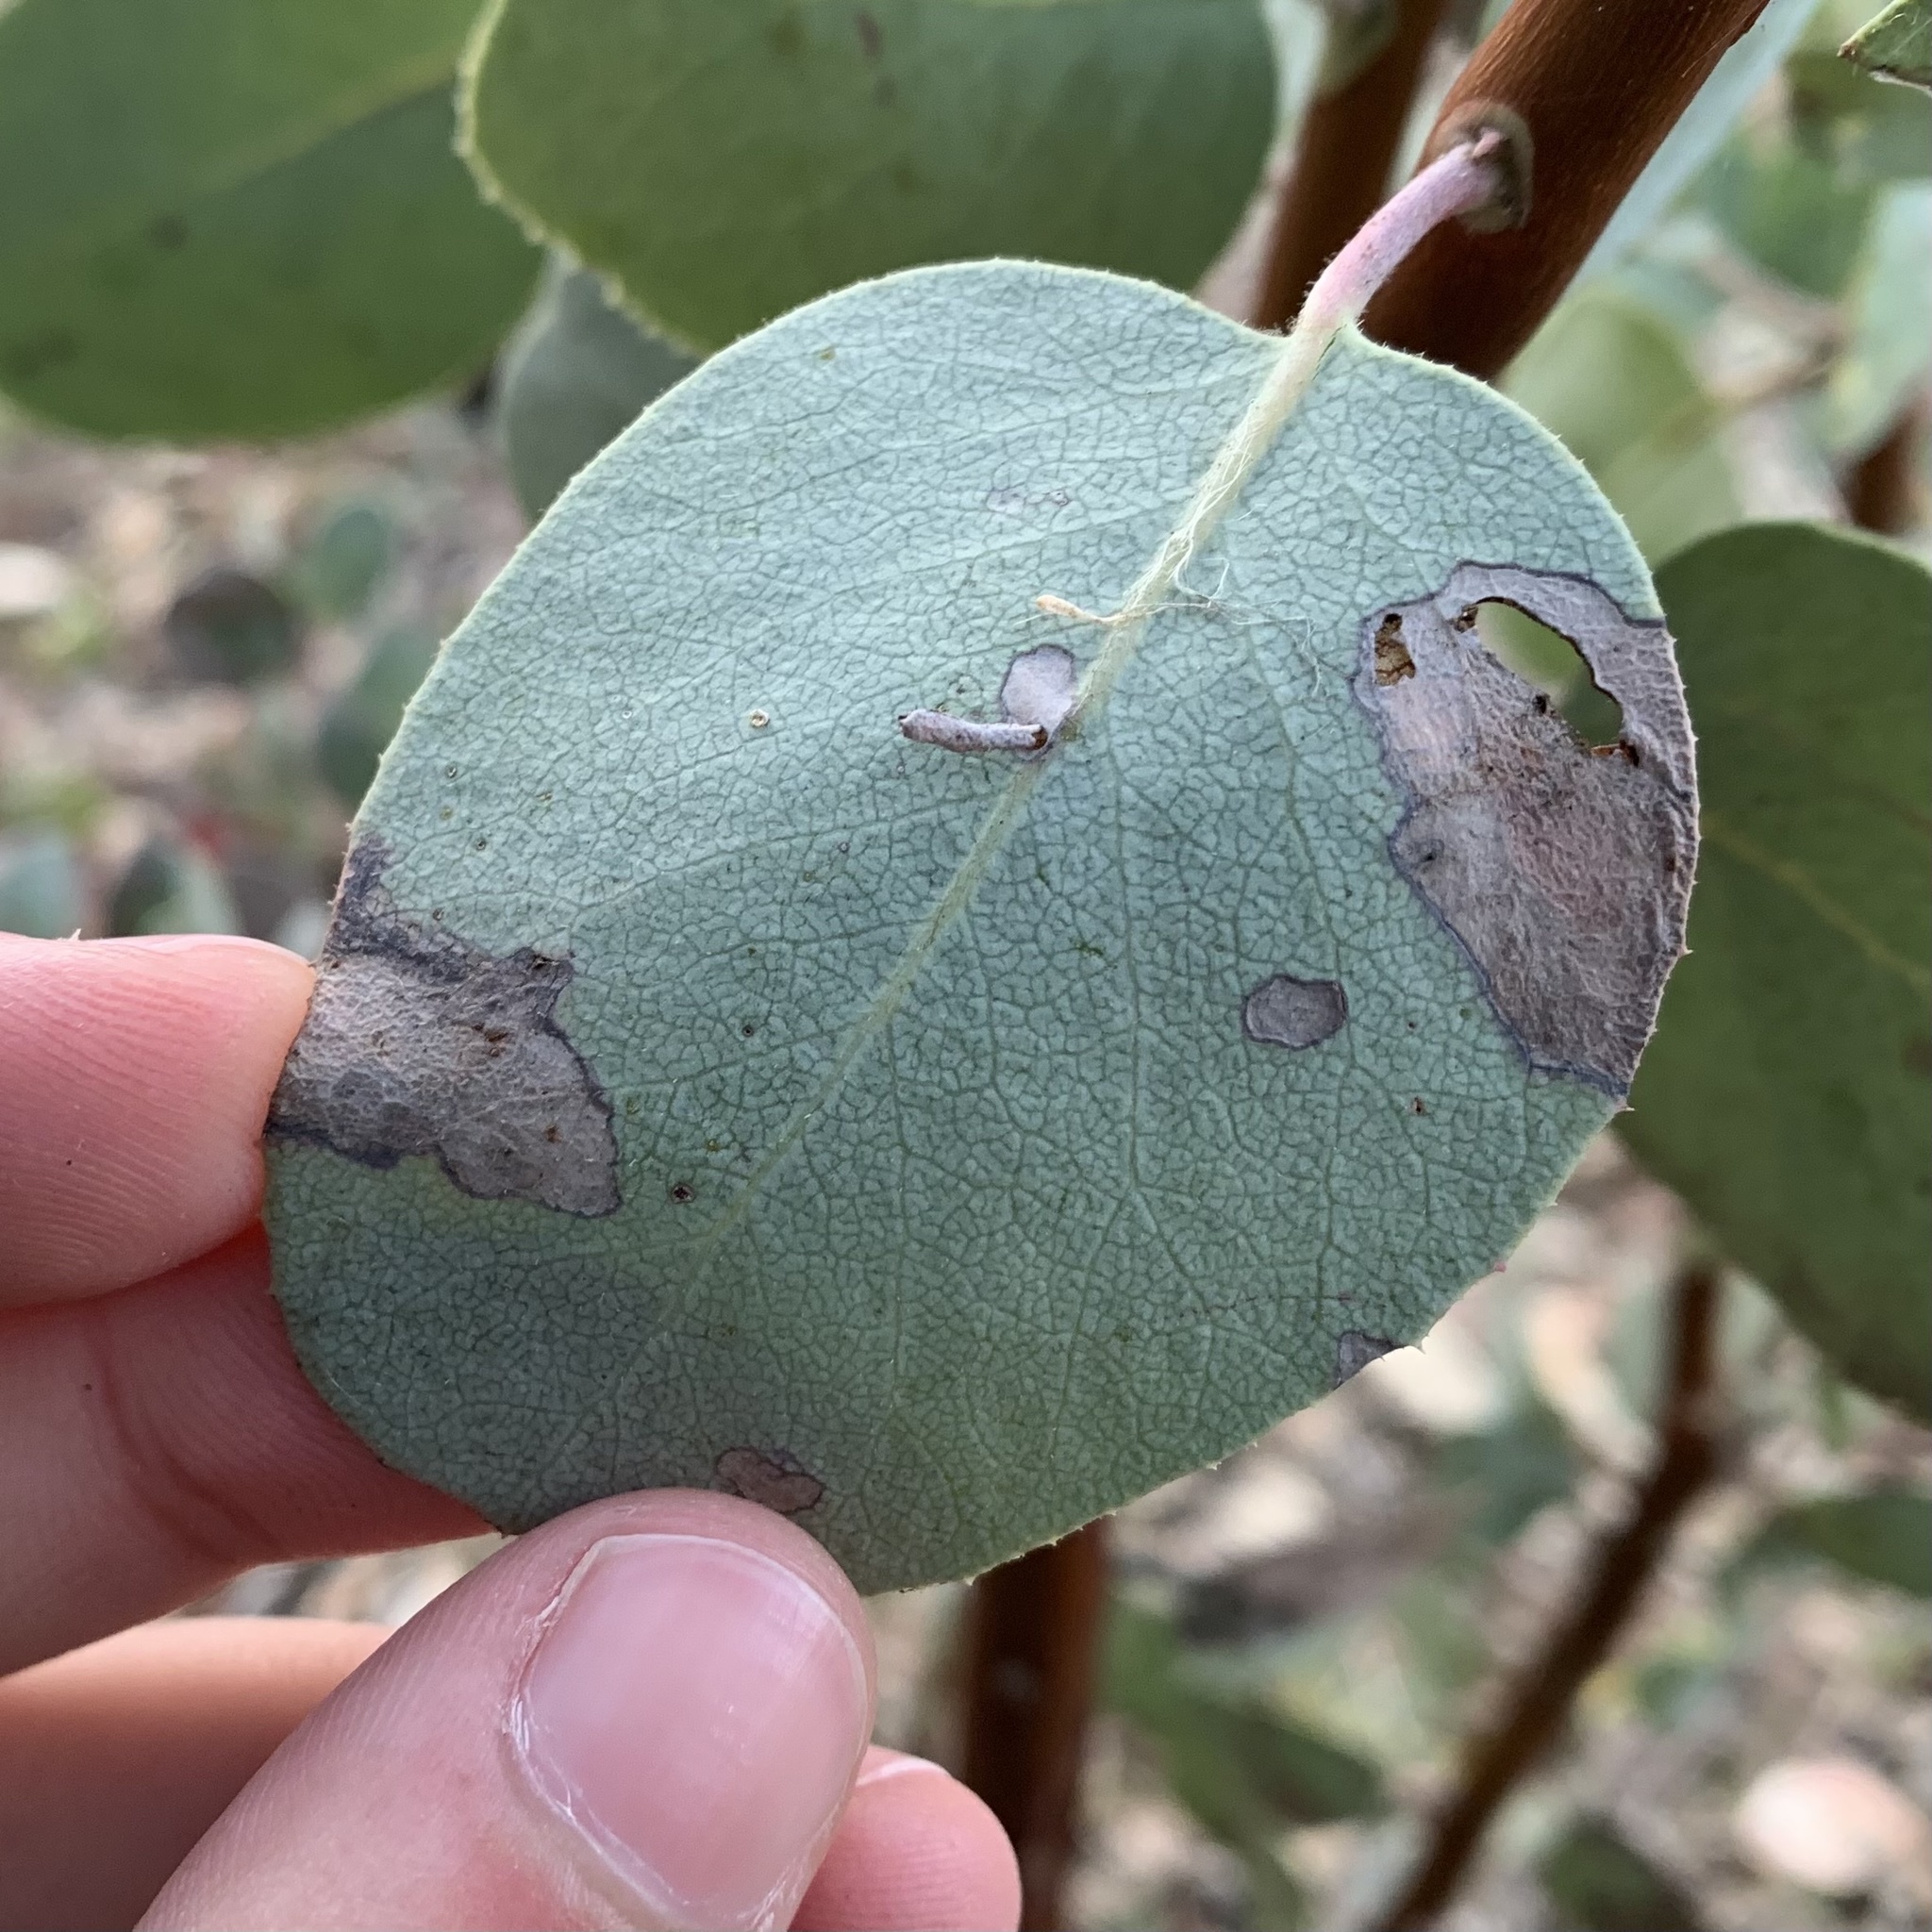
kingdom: Animalia
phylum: Arthropoda
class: Insecta
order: Lepidoptera
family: Coleophoridae
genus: Coleophora
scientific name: Coleophora glaucella
